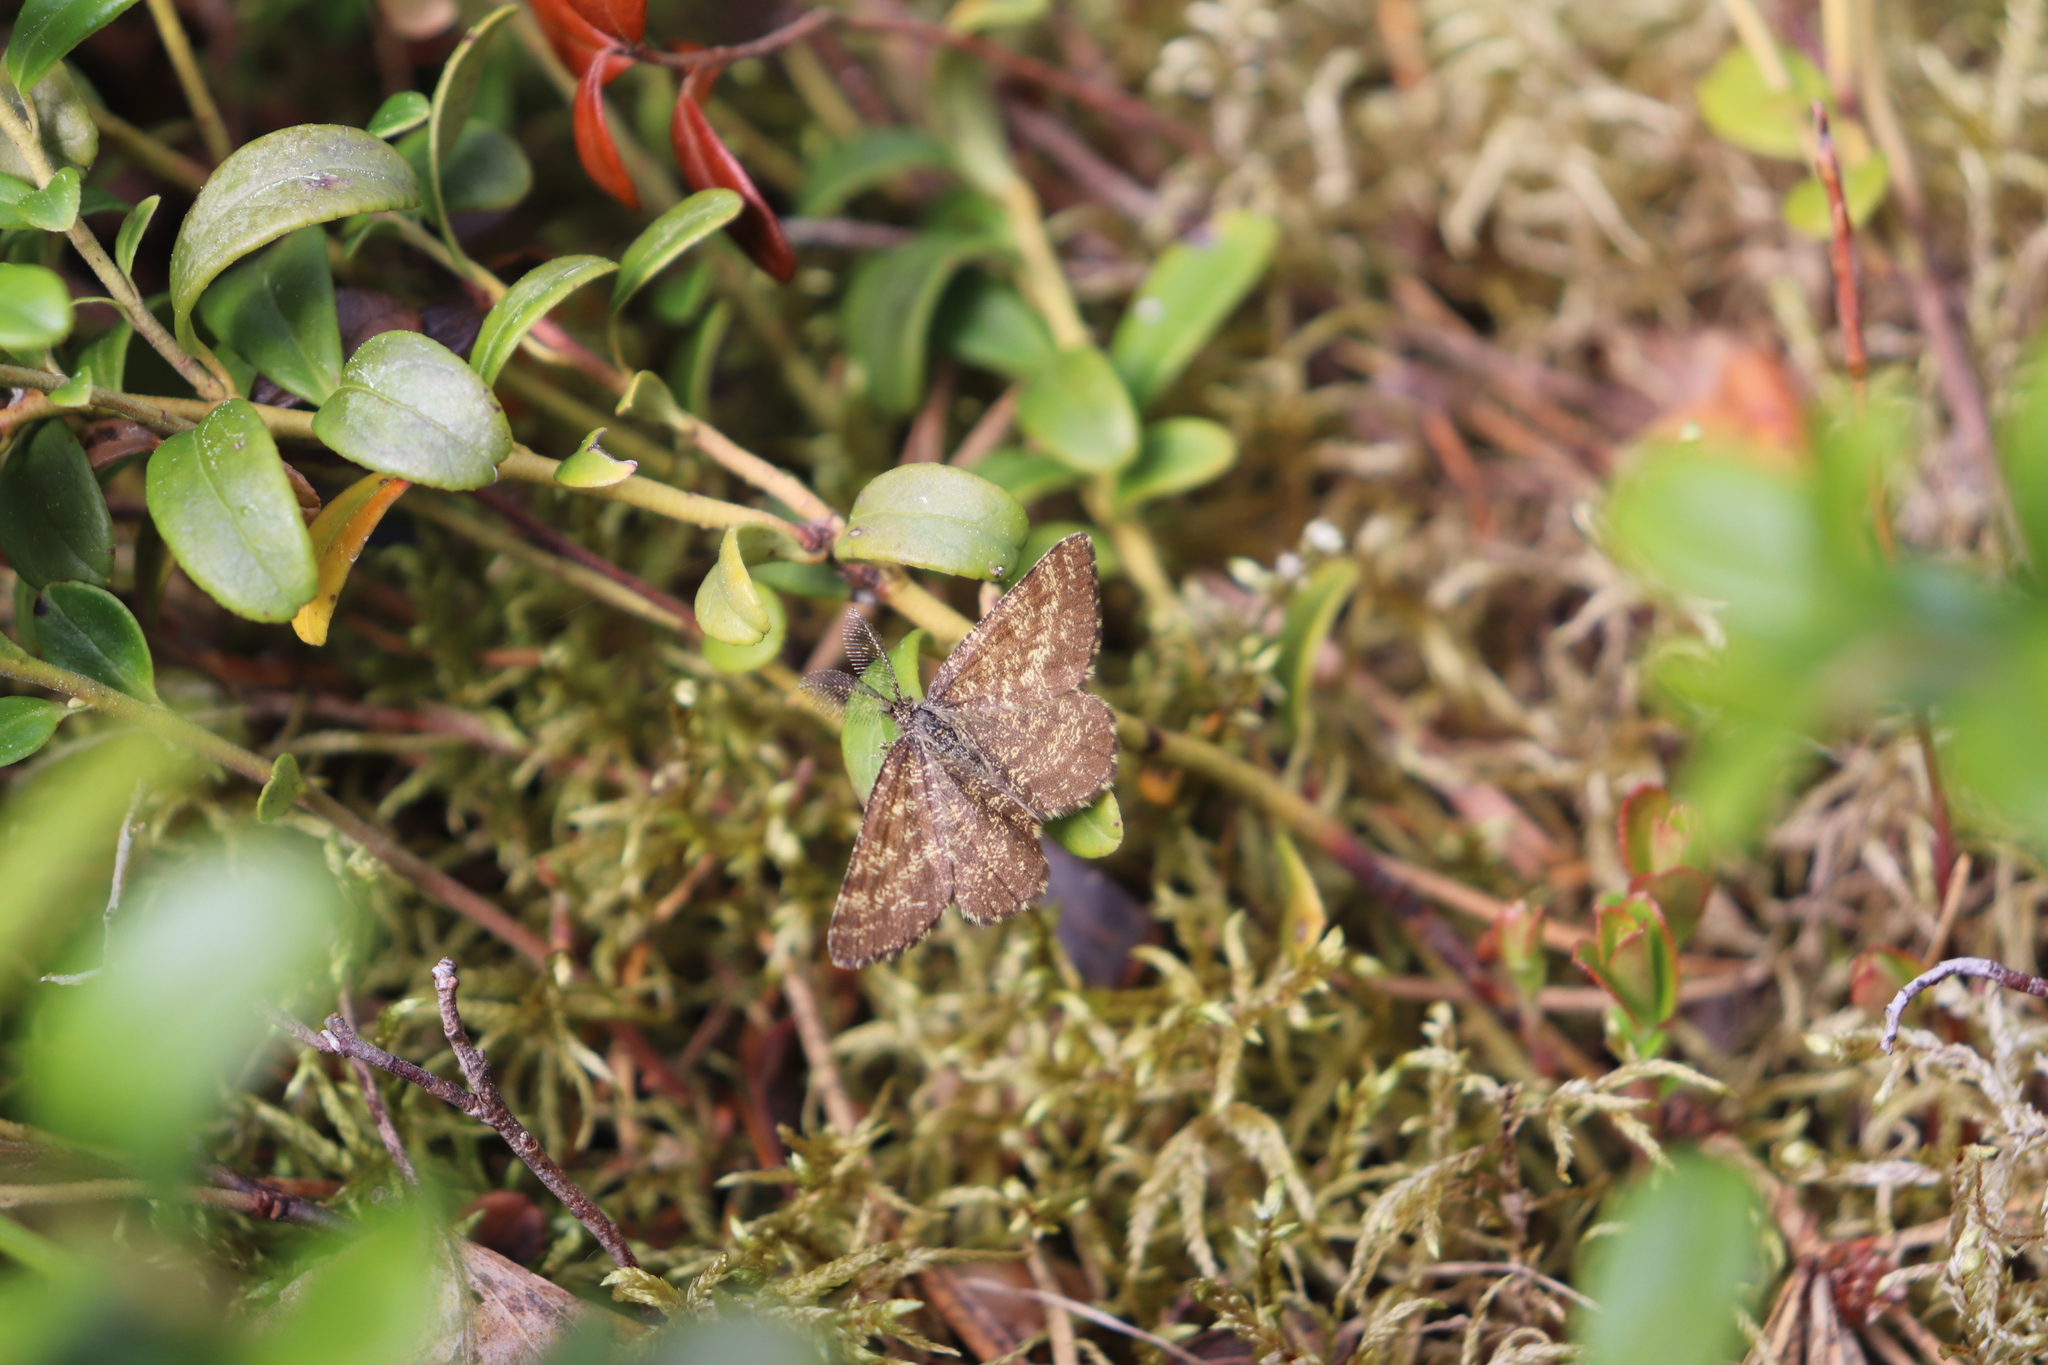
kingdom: Animalia
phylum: Arthropoda
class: Insecta
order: Lepidoptera
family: Geometridae
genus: Ematurga
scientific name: Ematurga atomaria
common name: Common heath
